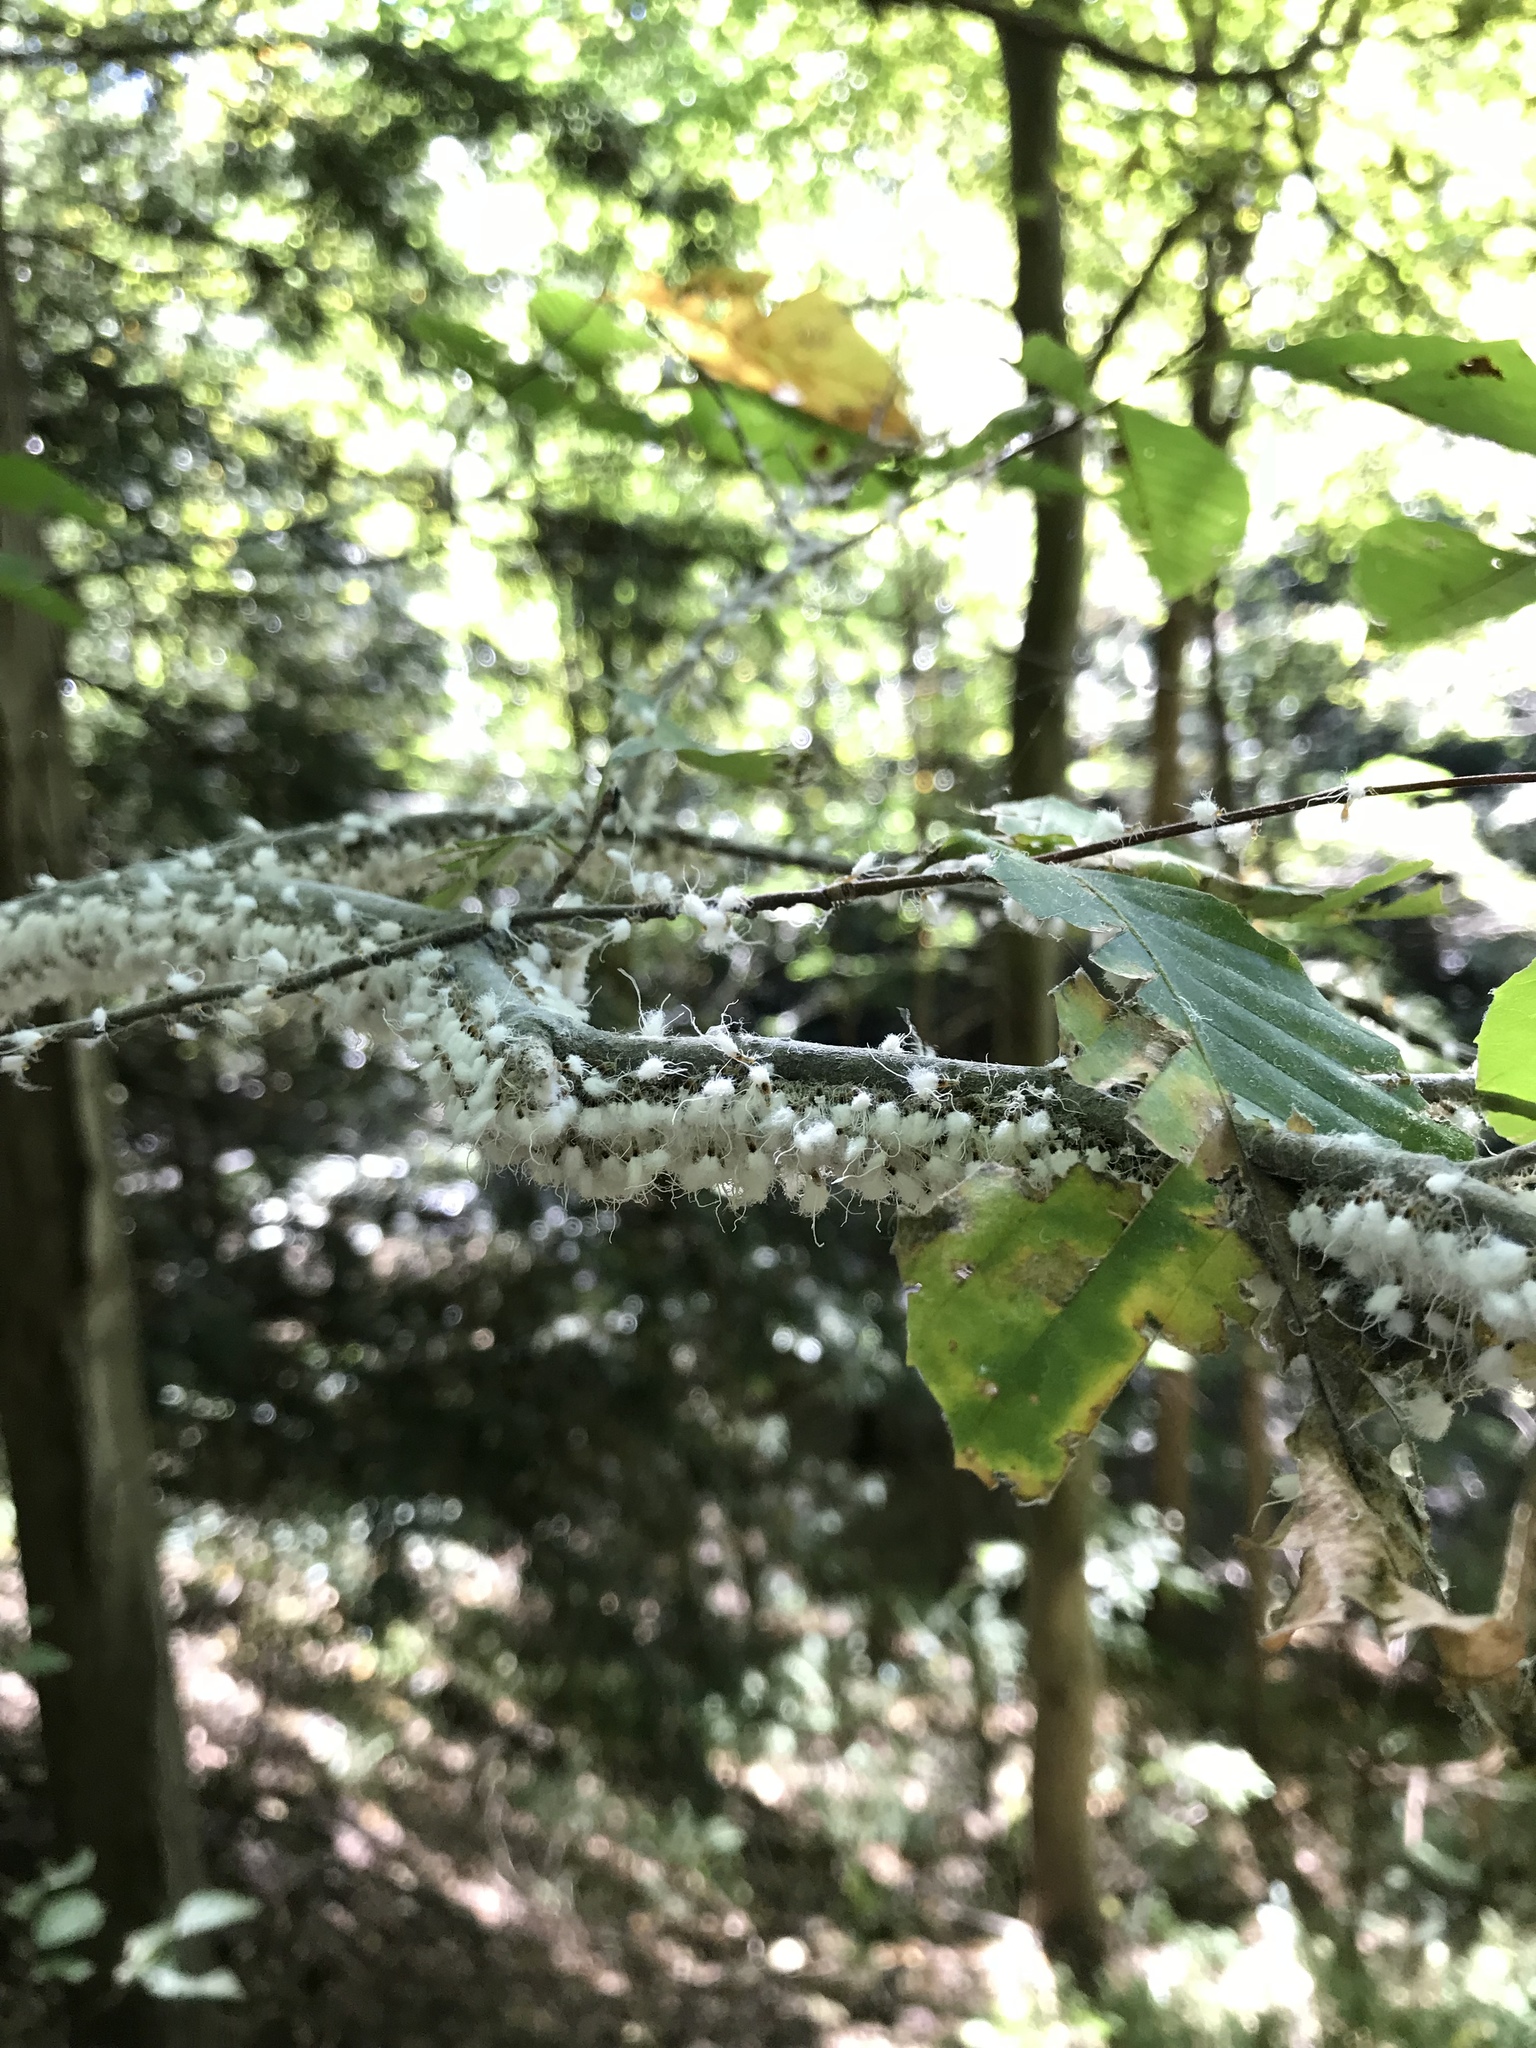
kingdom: Animalia
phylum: Arthropoda
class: Insecta
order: Hemiptera
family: Aphididae
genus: Grylloprociphilus
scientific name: Grylloprociphilus imbricator
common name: Beech blight aphid
